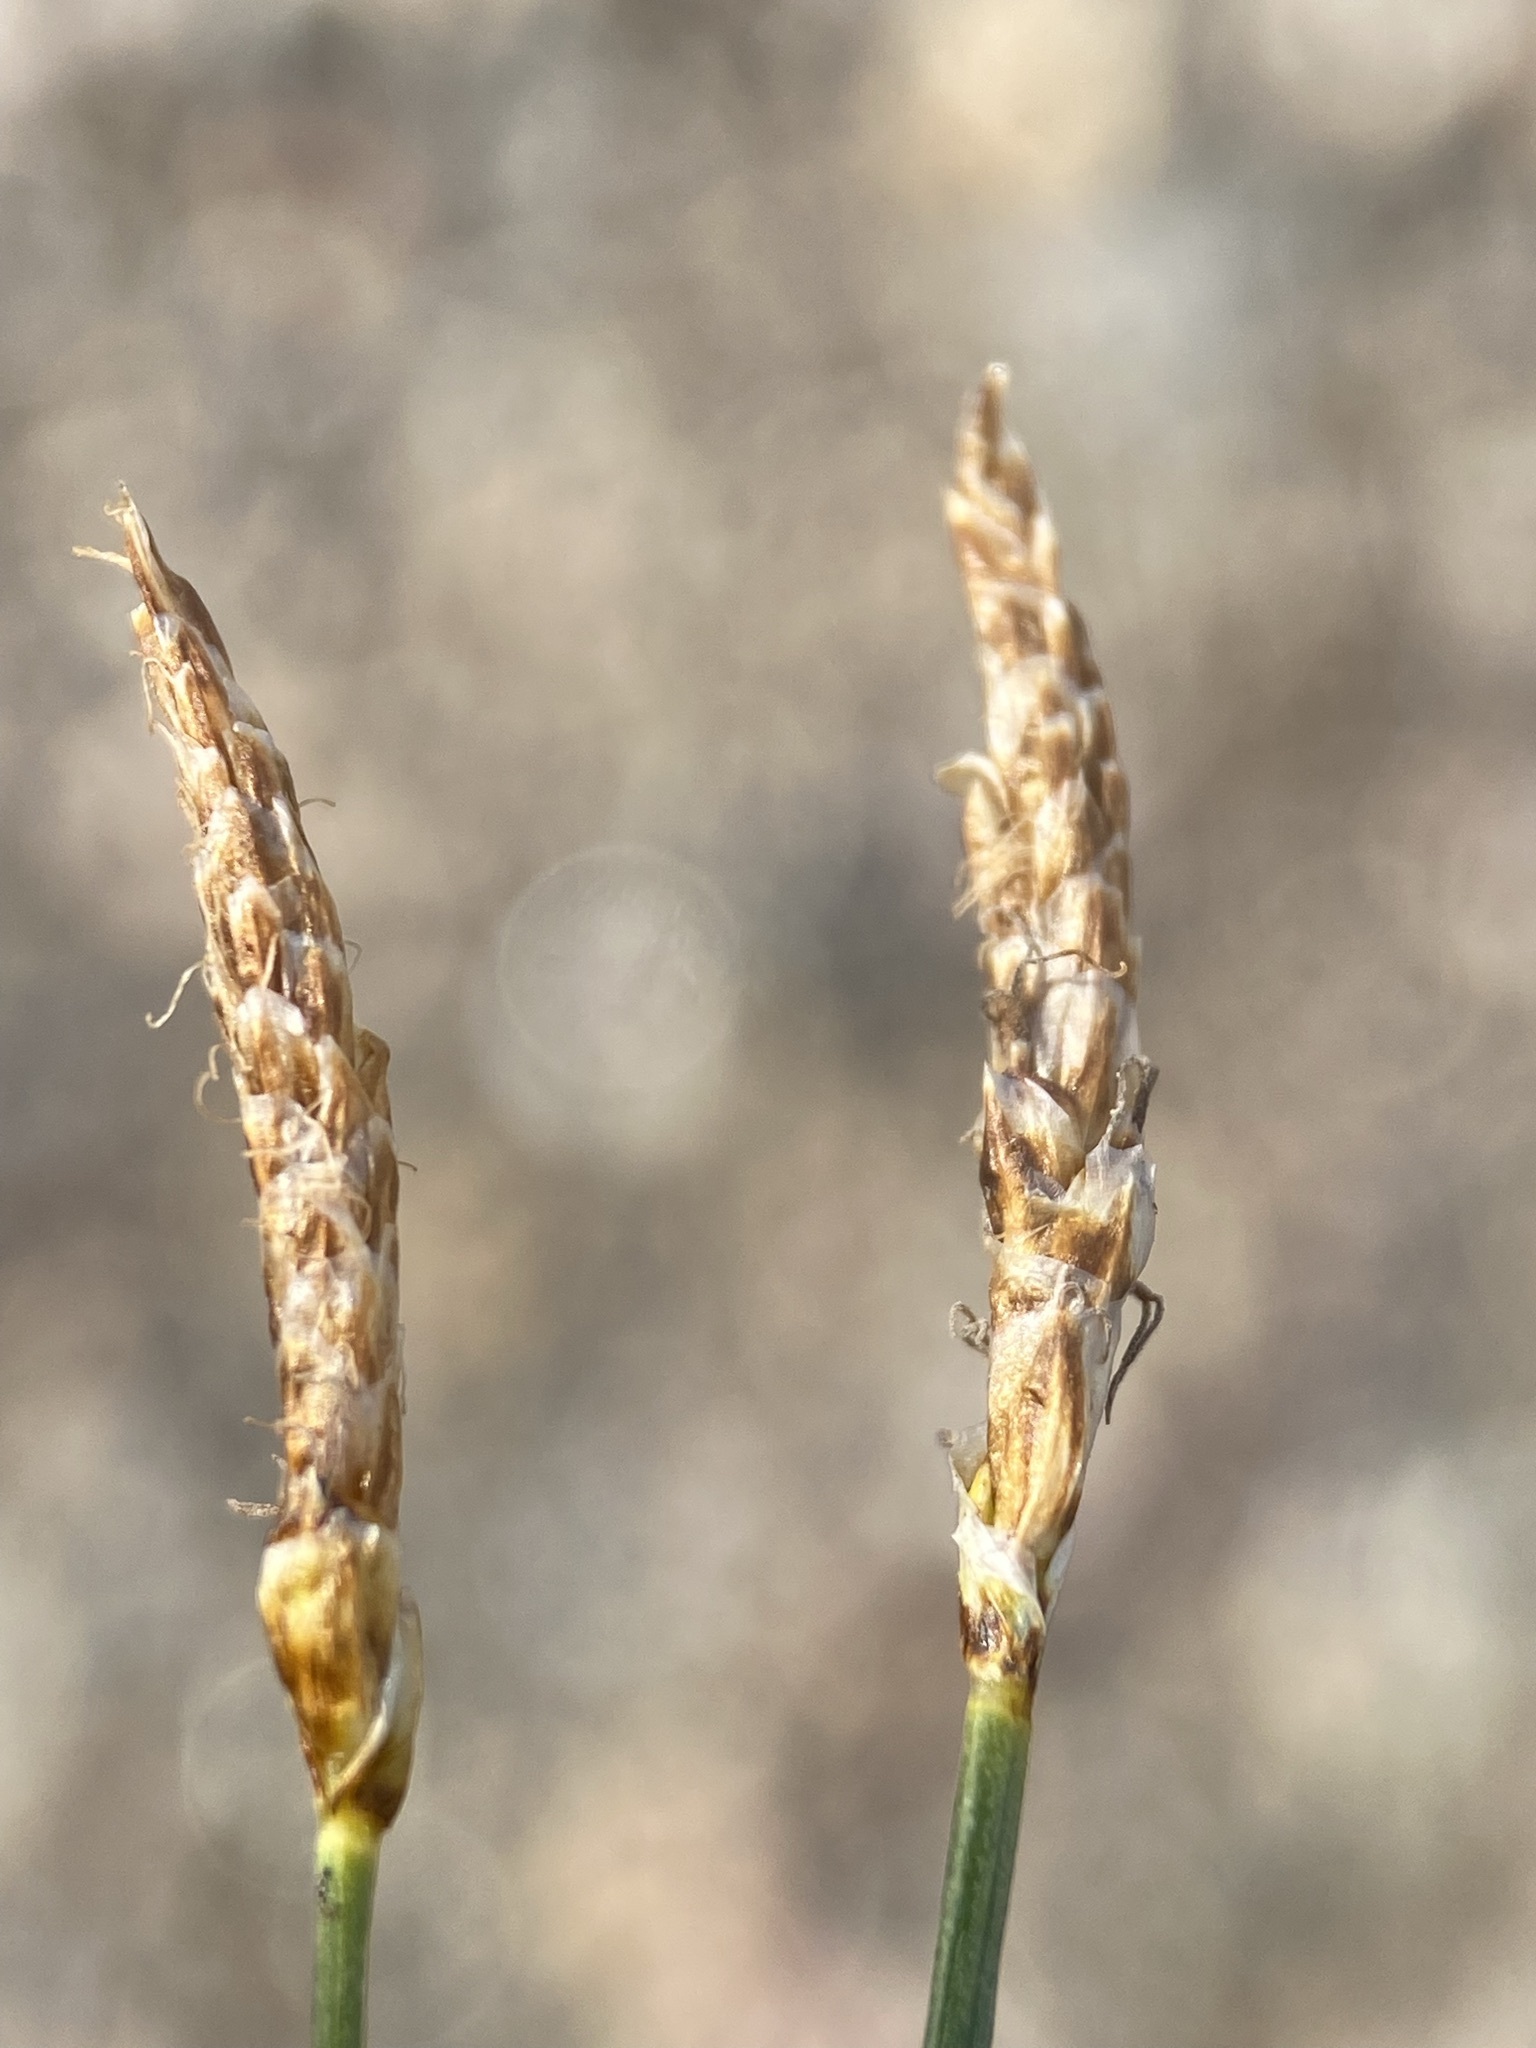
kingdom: Plantae
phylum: Tracheophyta
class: Liliopsida
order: Poales
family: Cyperaceae
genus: Carex
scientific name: Carex scirpoidea
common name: Canada single-spike sedge
